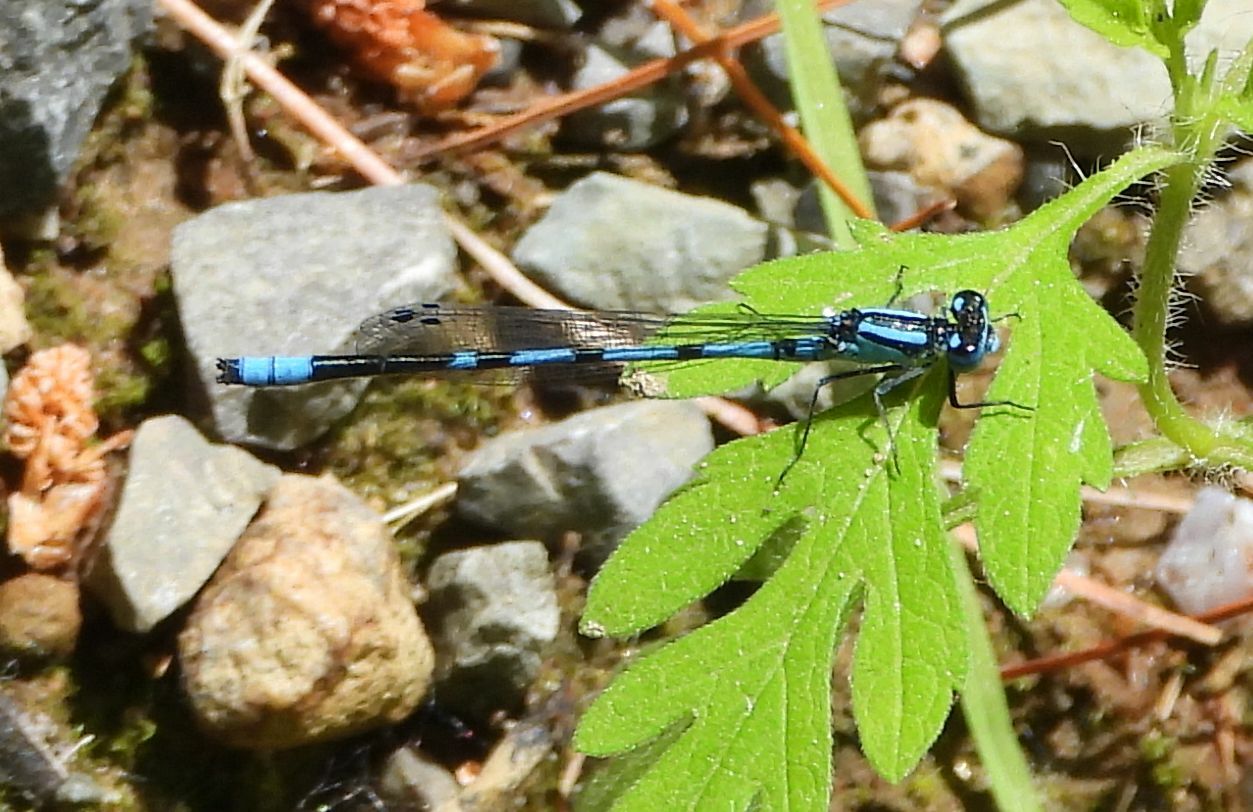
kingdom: Animalia
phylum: Arthropoda
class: Insecta
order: Odonata
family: Coenagrionidae
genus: Enallagma
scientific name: Enallagma ebrium
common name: Marsh bluet
